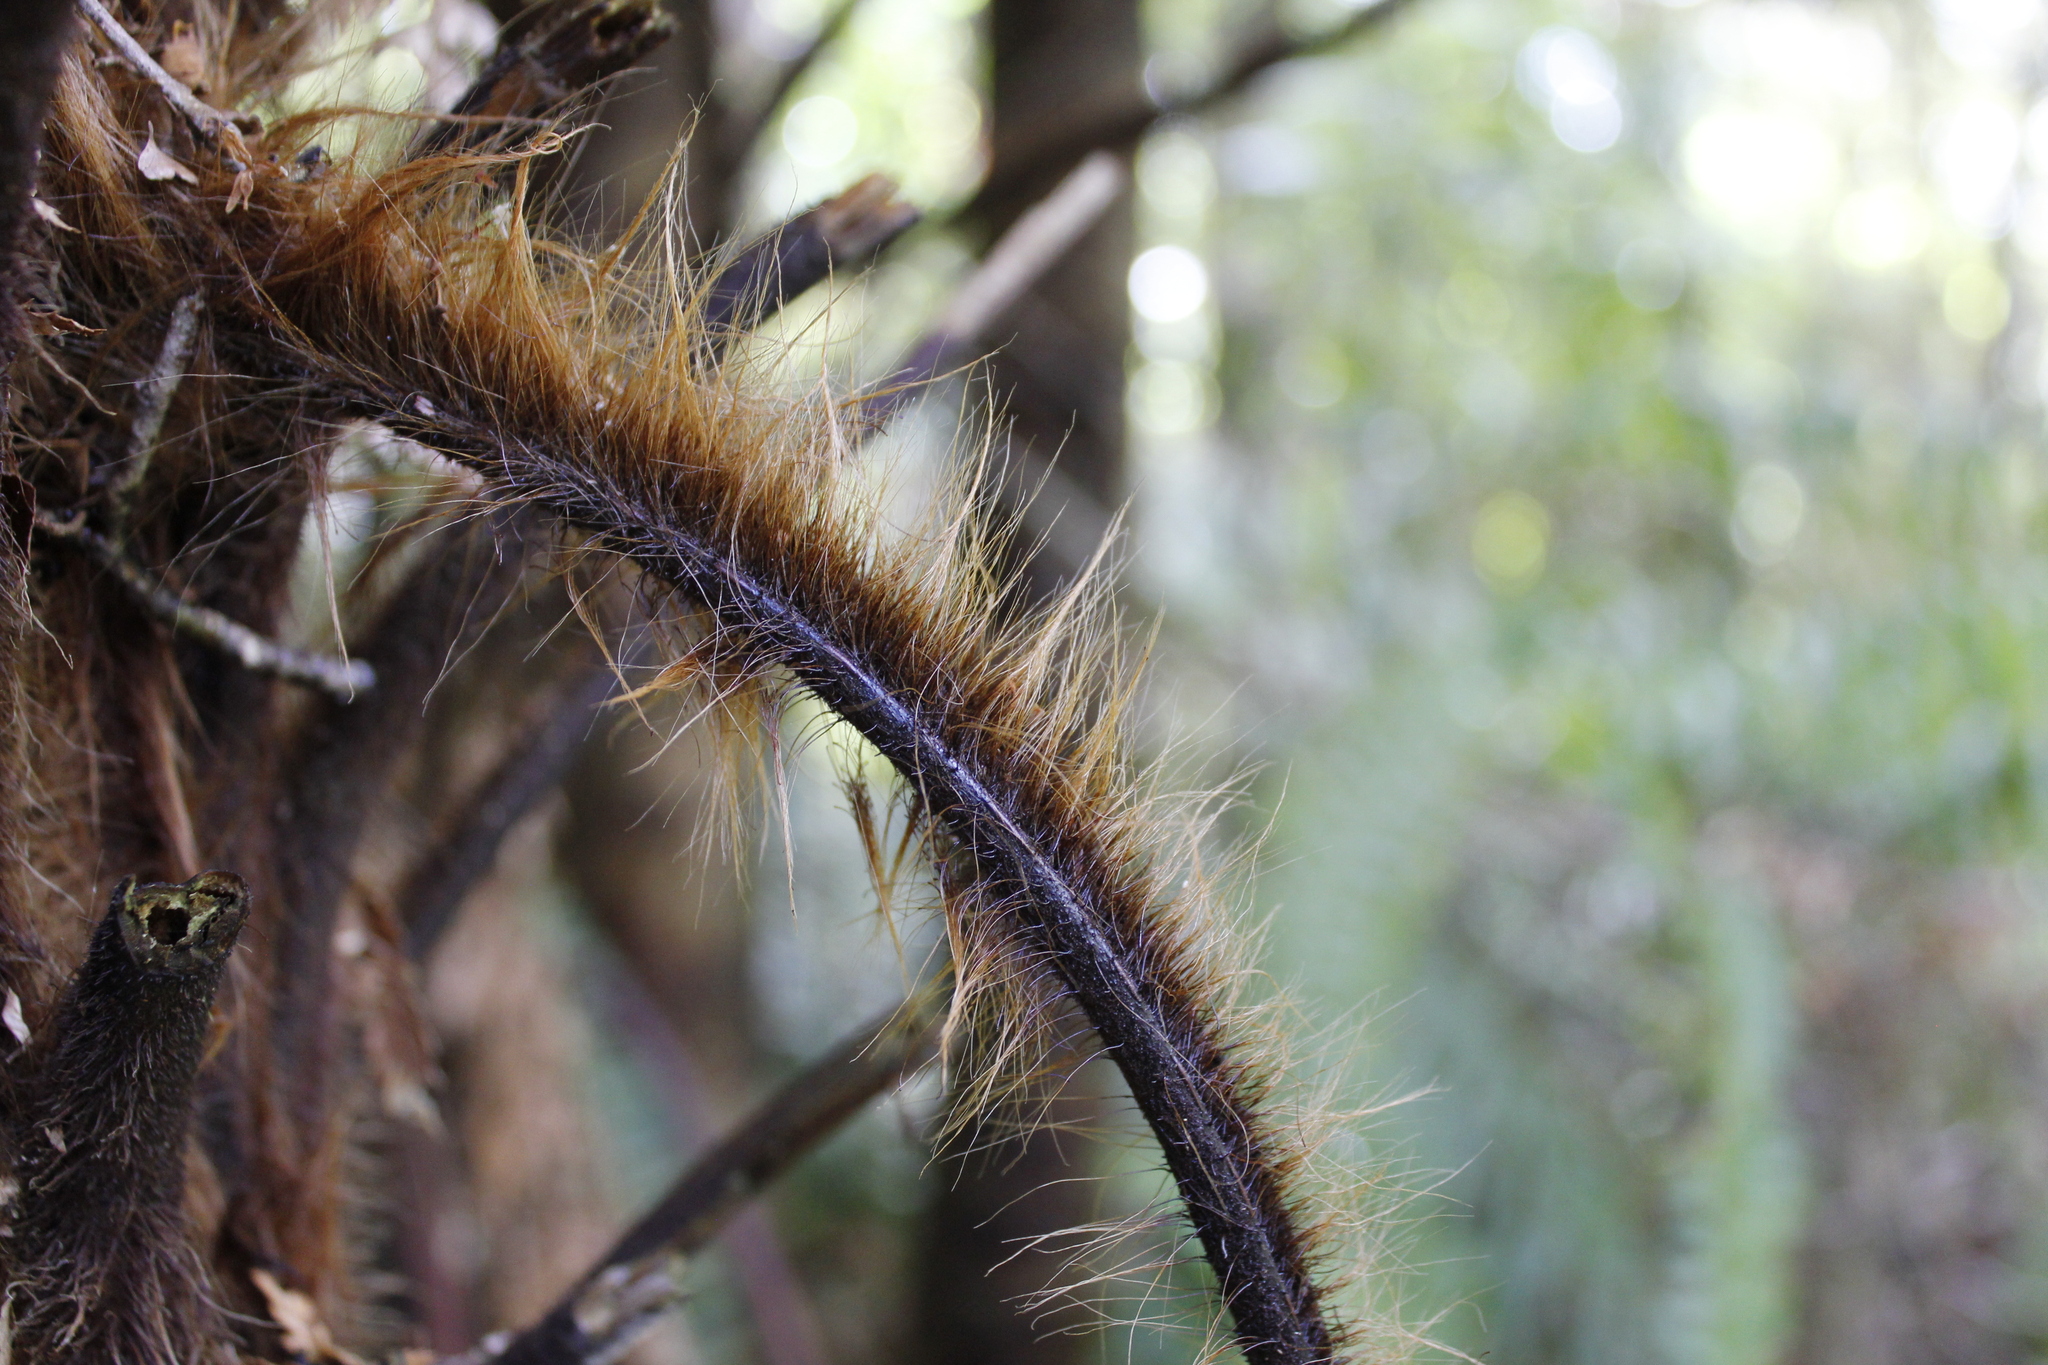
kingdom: Plantae
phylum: Tracheophyta
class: Polypodiopsida
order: Cyatheales
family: Dicksoniaceae
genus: Dicksonia
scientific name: Dicksonia squarrosa
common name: Hard treefern
